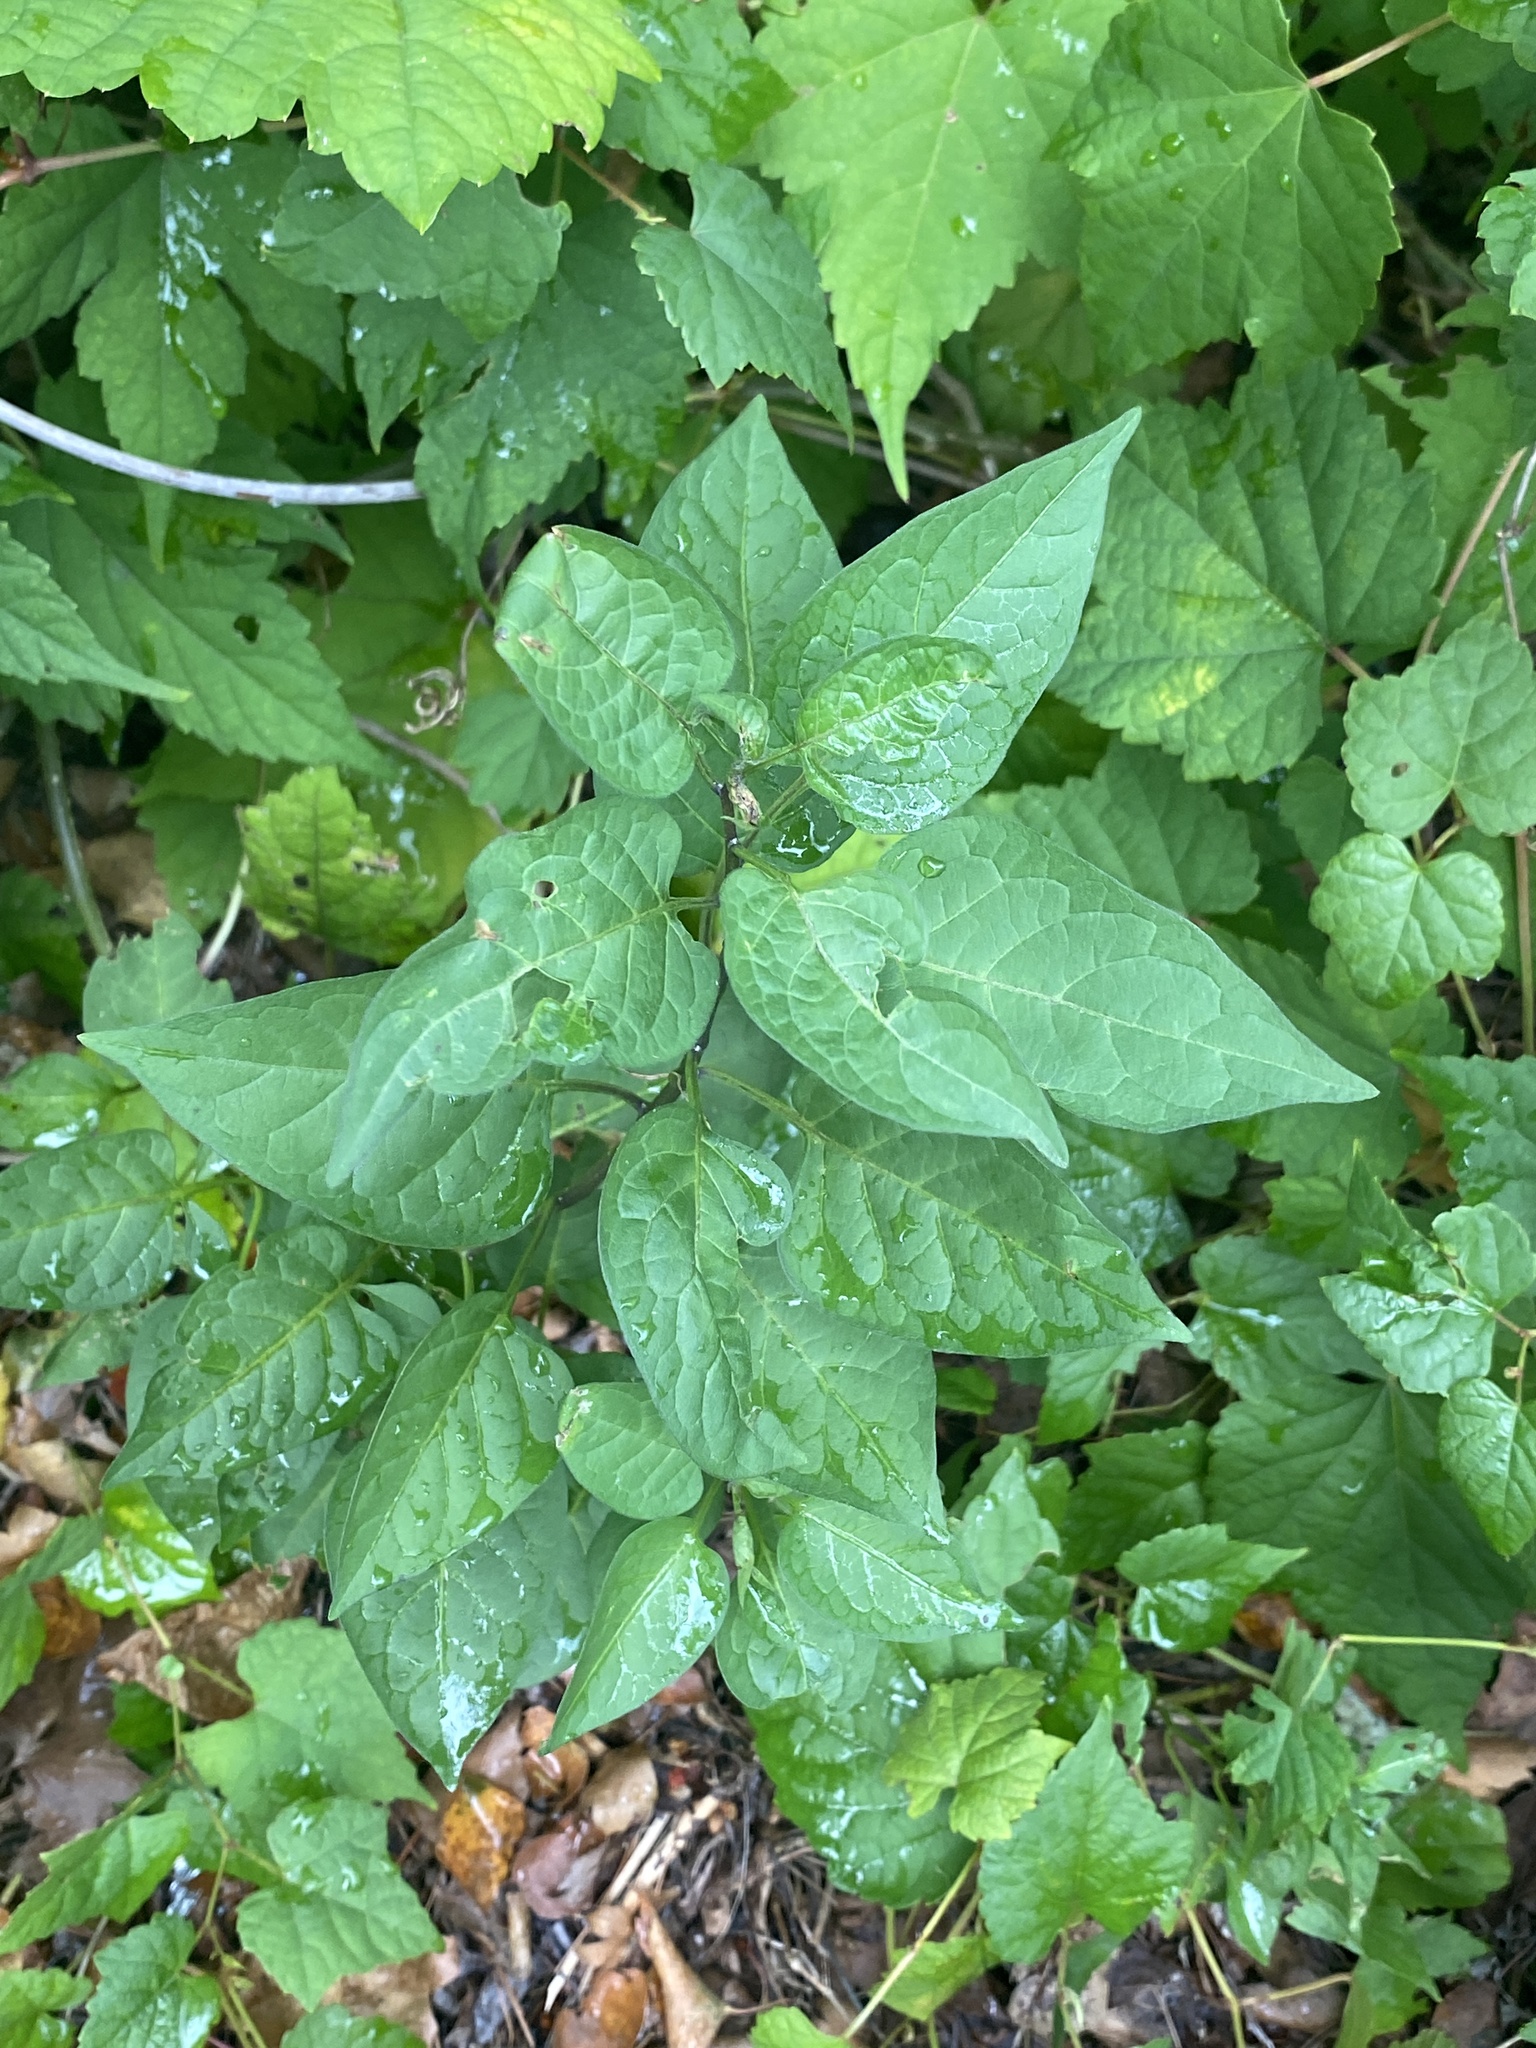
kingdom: Plantae
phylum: Tracheophyta
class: Magnoliopsida
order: Solanales
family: Solanaceae
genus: Solanum
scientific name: Solanum dulcamara
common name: Climbing nightshade
